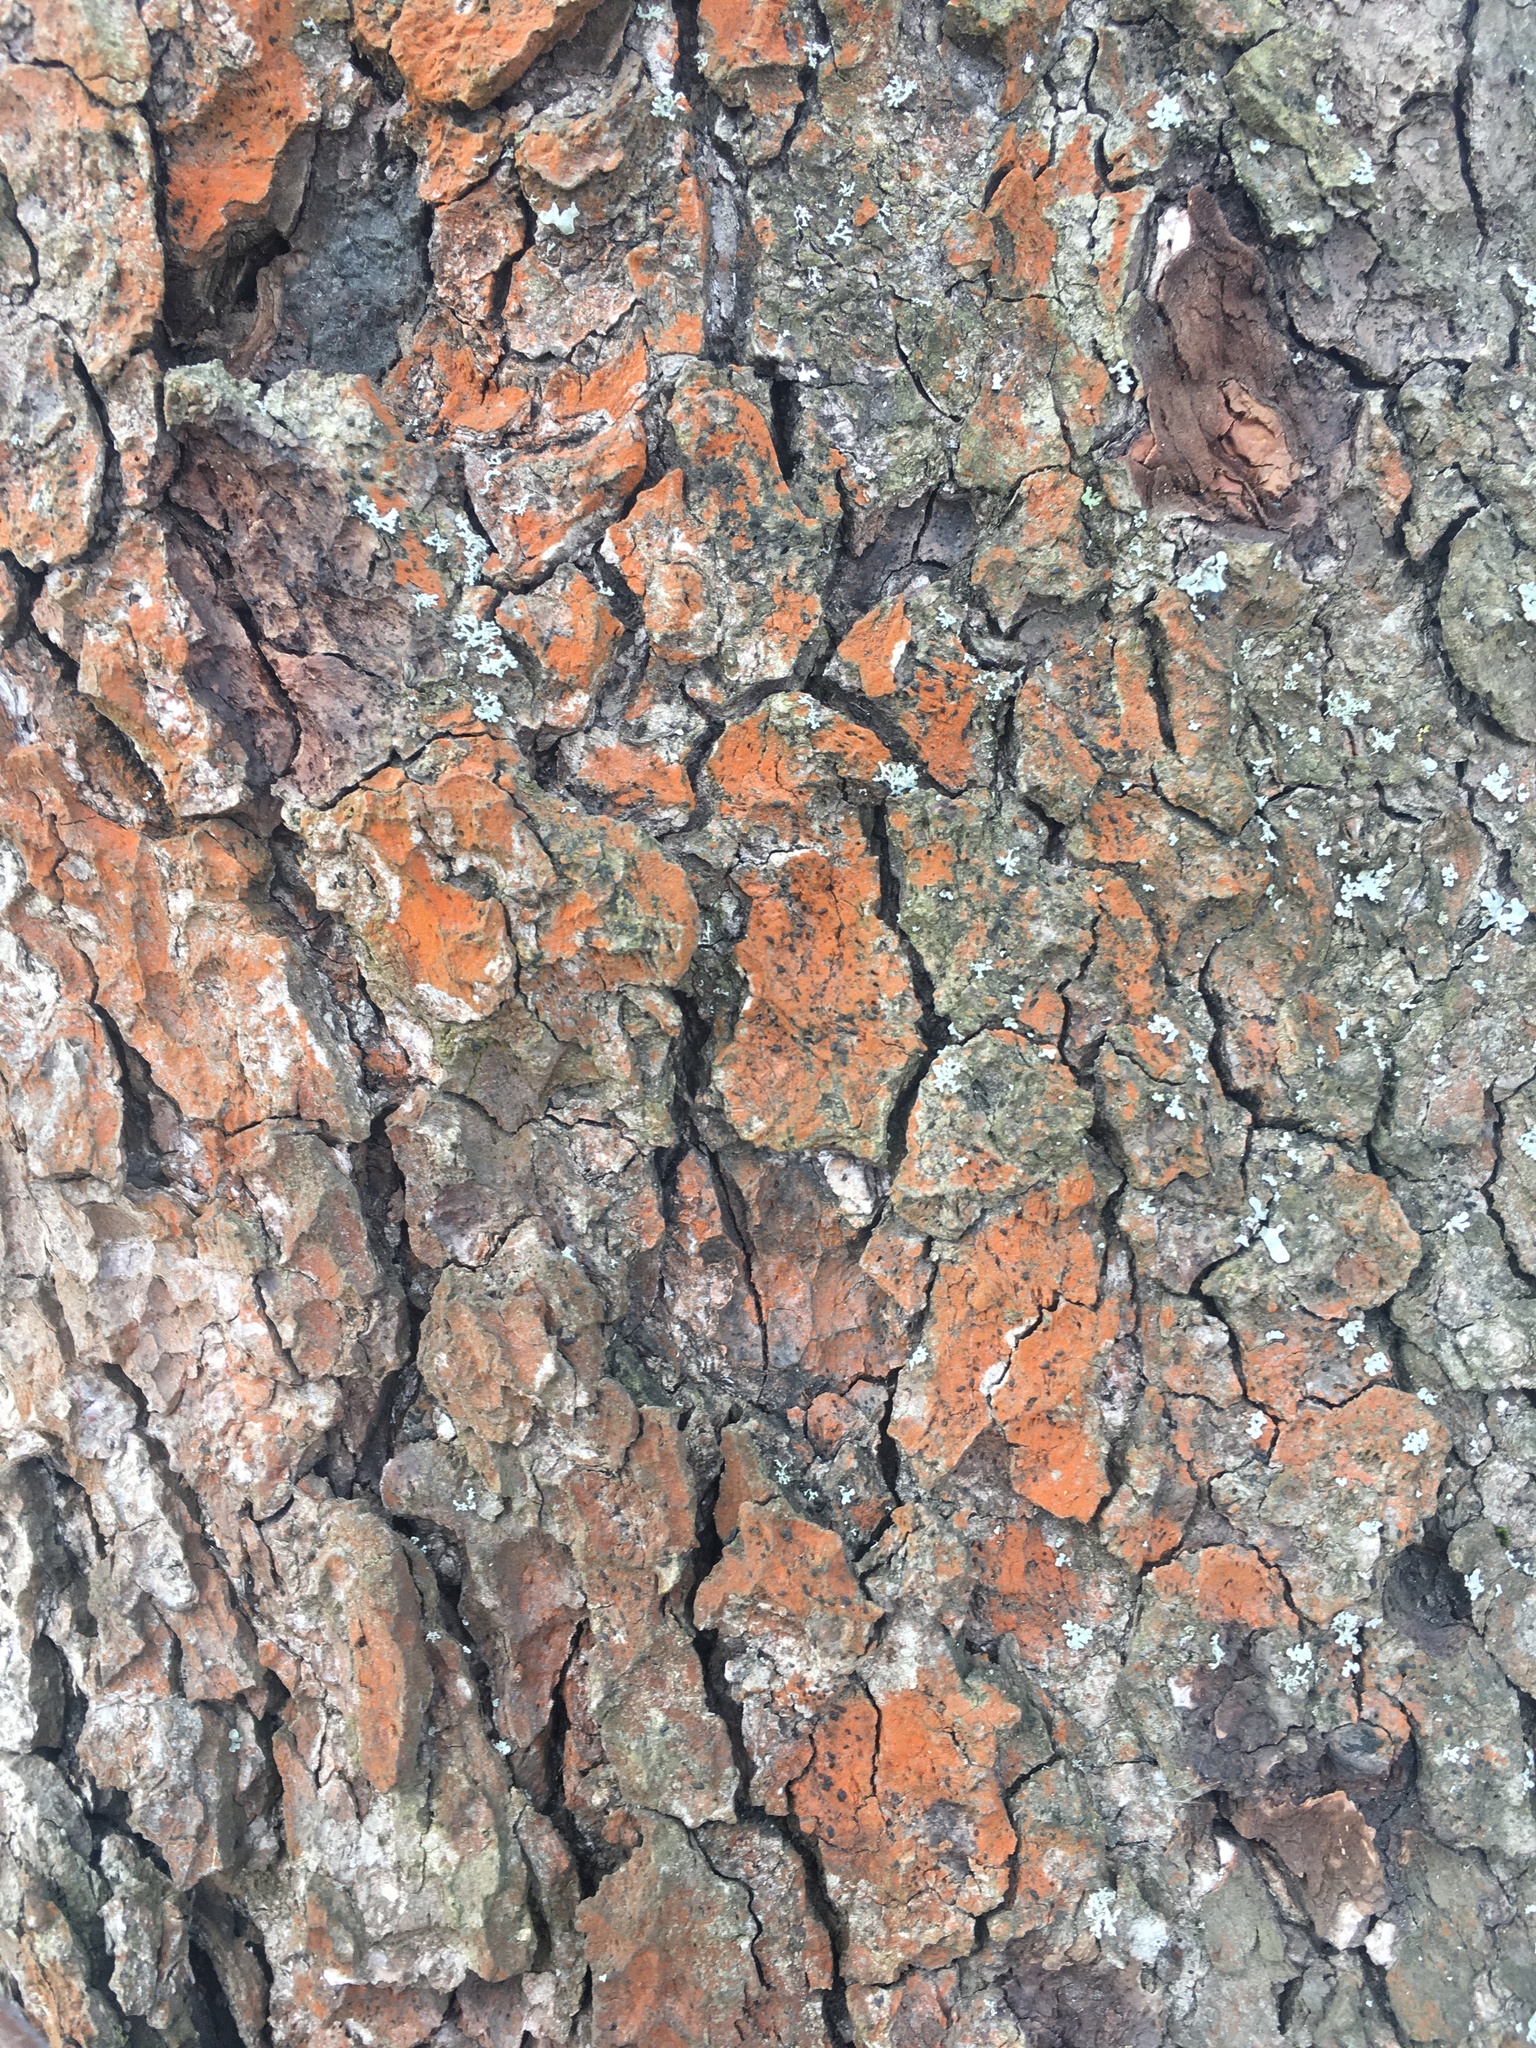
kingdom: Plantae
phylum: Chlorophyta
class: Ulvophyceae
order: Trentepohliales
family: Trentepohliaceae
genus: Trentepohlia
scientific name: Trentepohlia
